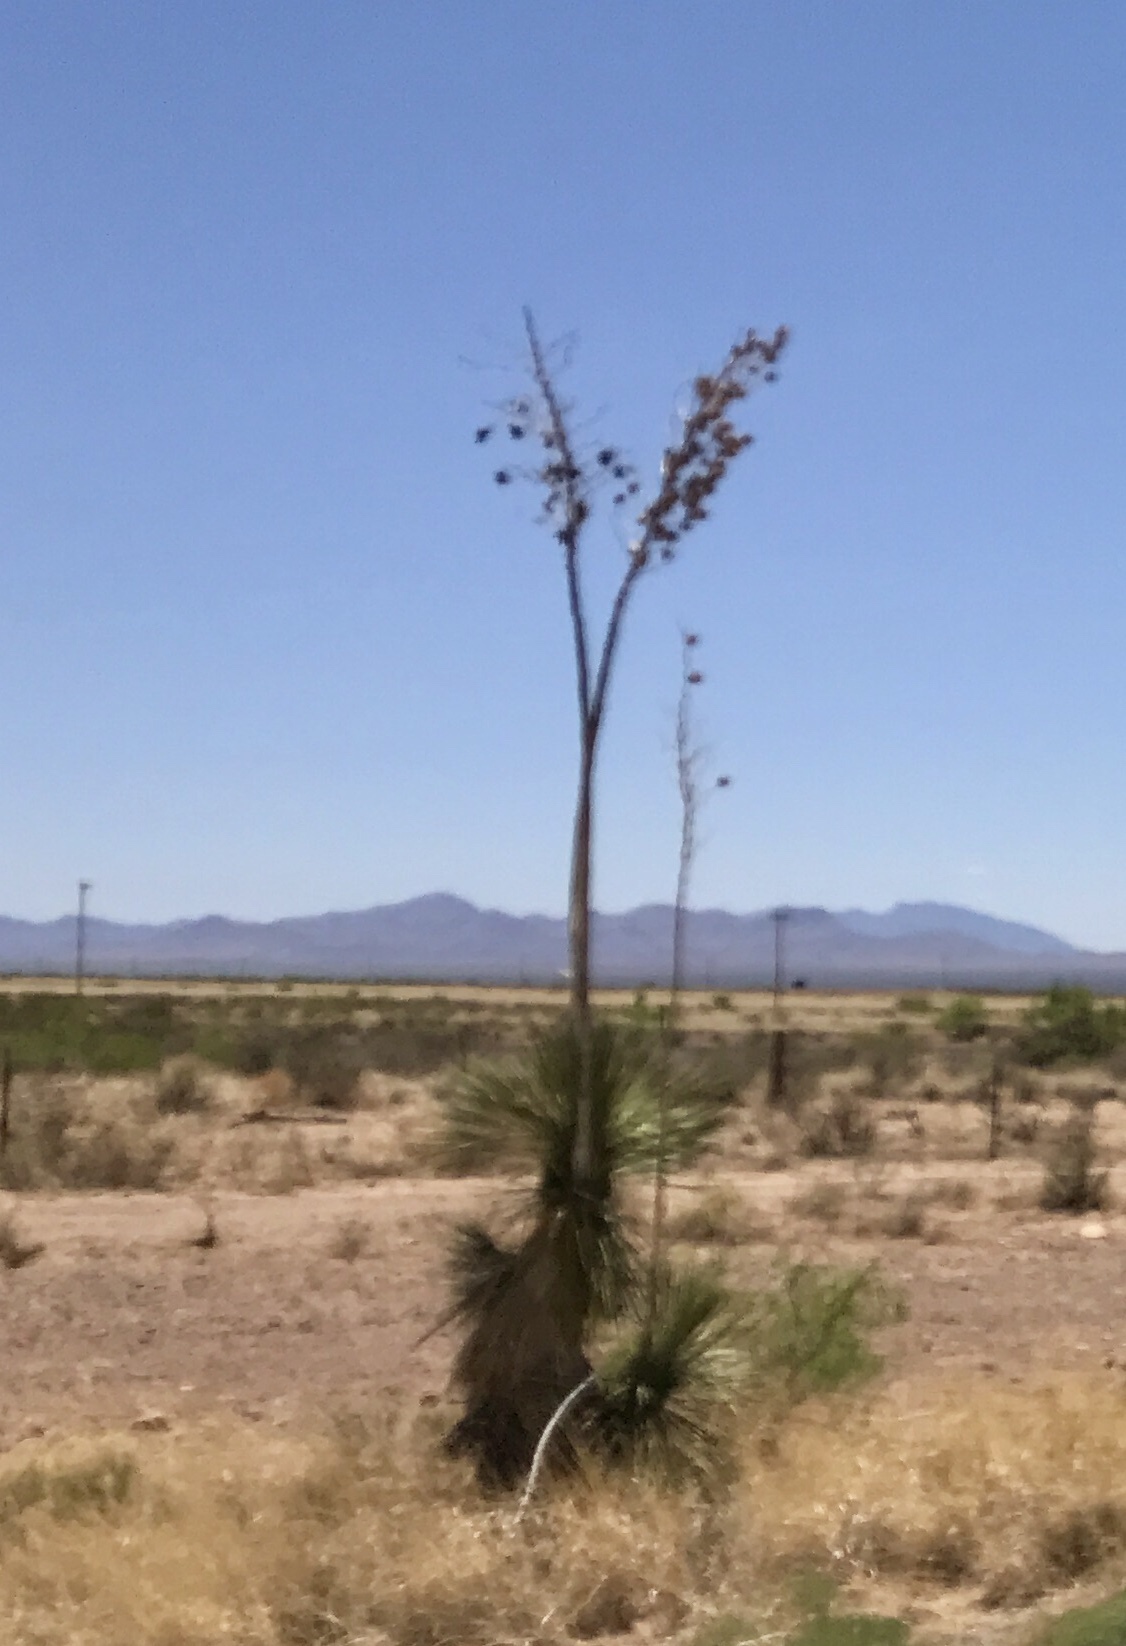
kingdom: Plantae
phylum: Tracheophyta
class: Liliopsida
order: Asparagales
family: Asparagaceae
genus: Yucca
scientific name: Yucca elata
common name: Palmella
